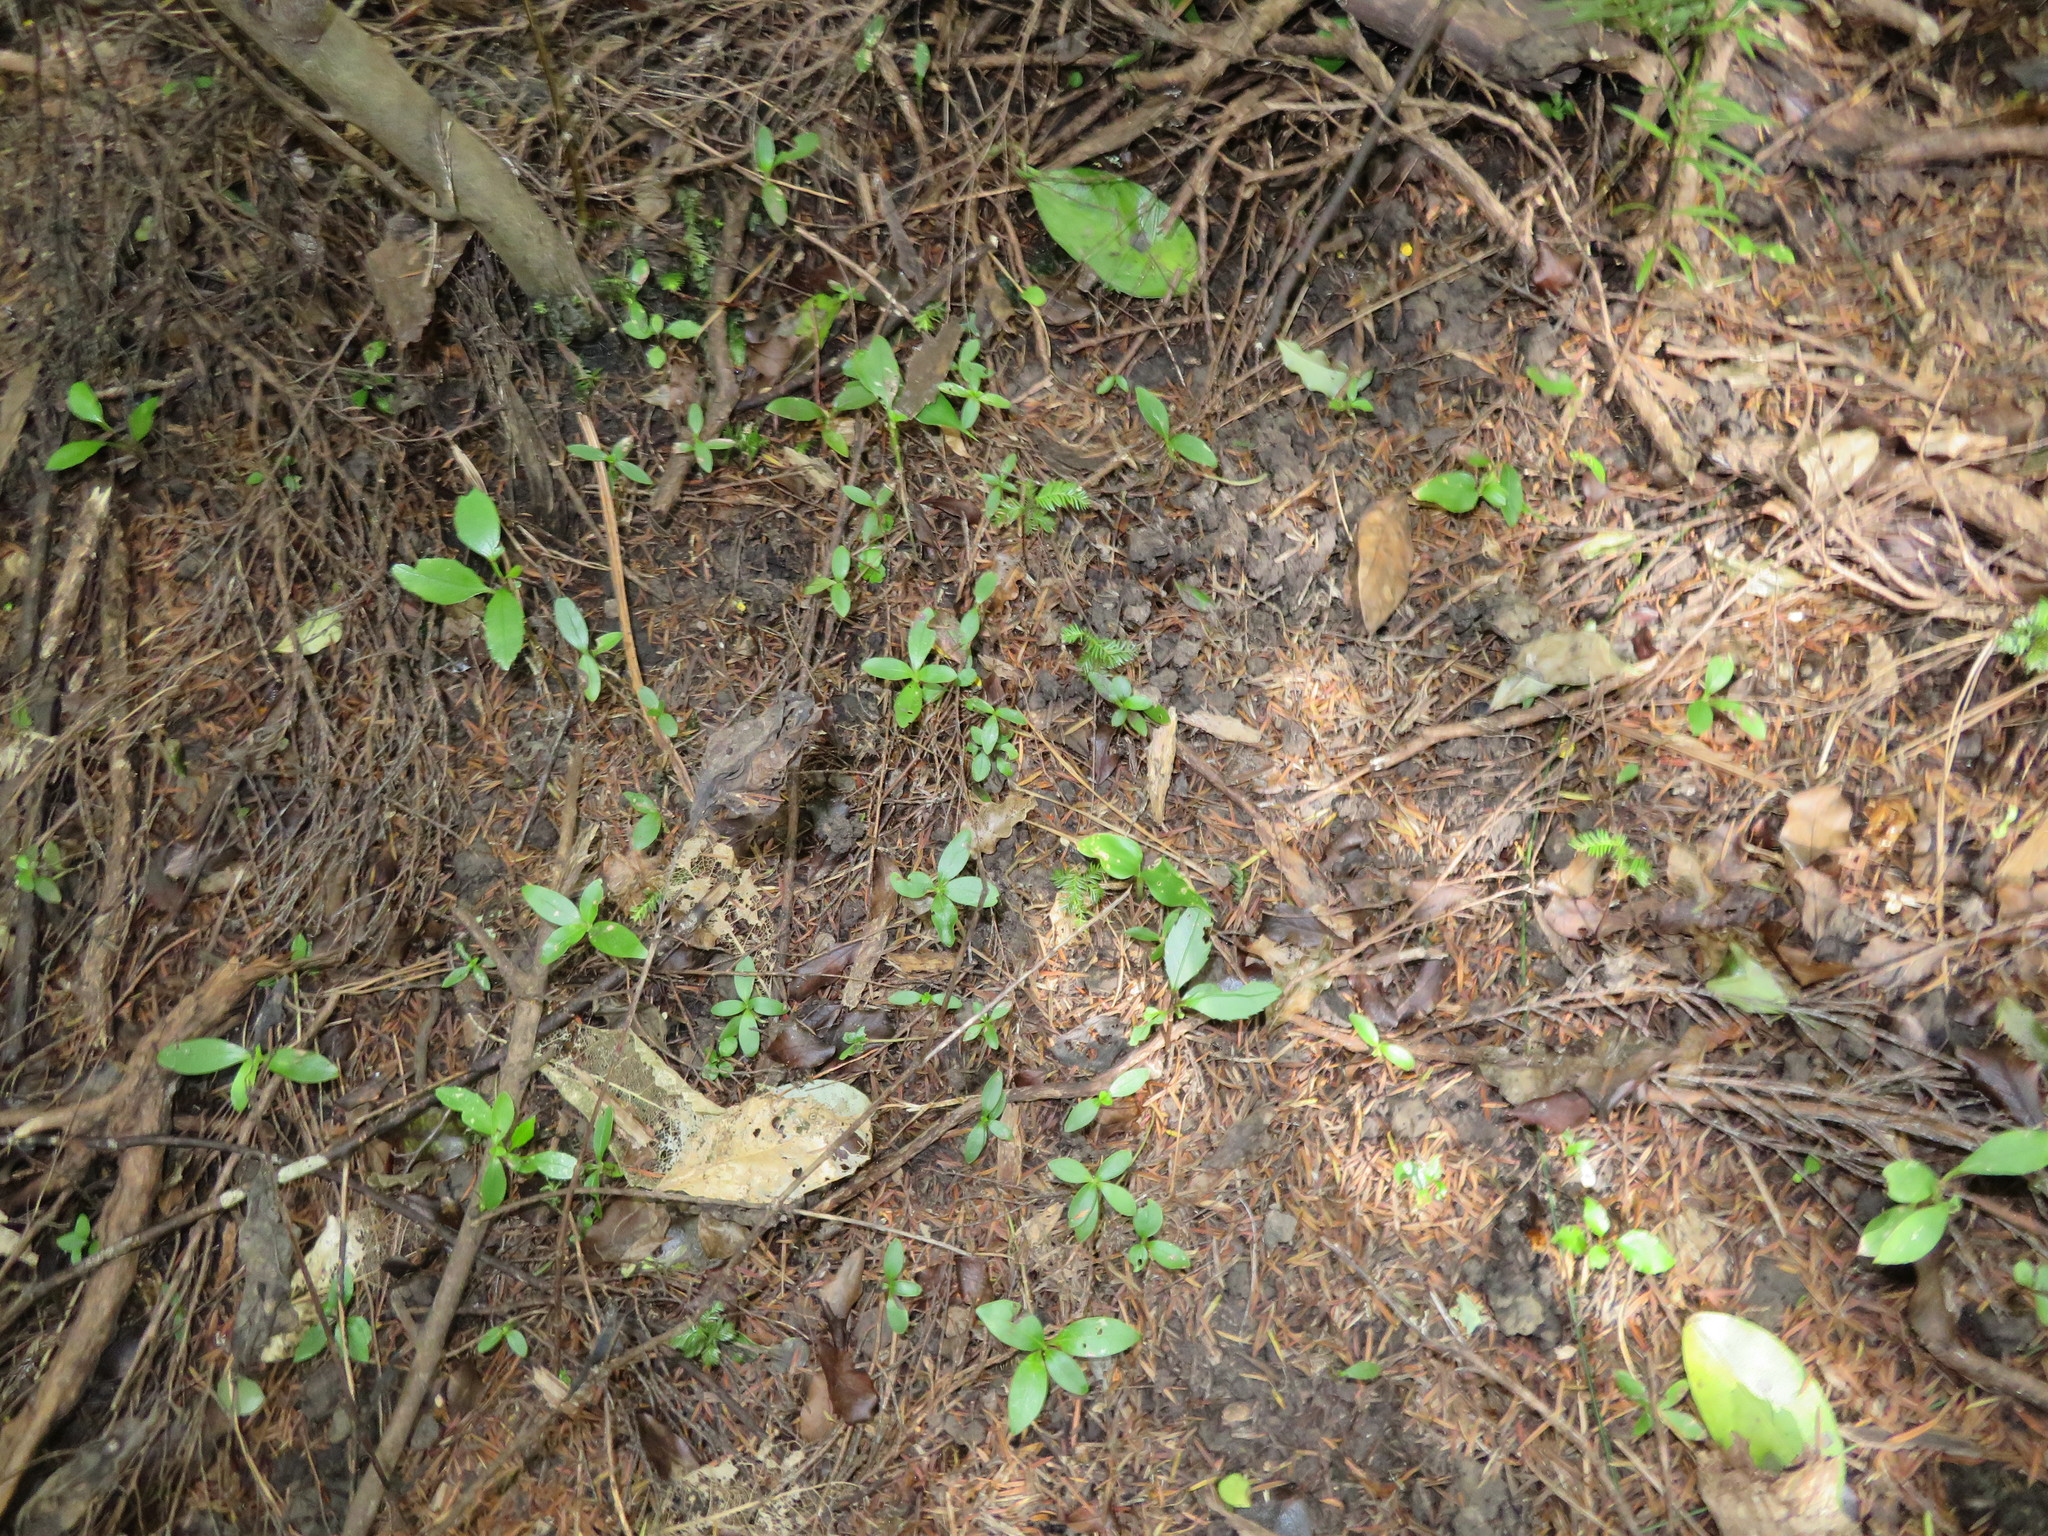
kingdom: Plantae
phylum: Tracheophyta
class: Pinopsida
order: Pinales
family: Podocarpaceae
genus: Dacrycarpus
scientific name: Dacrycarpus dacrydioides
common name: White pine
